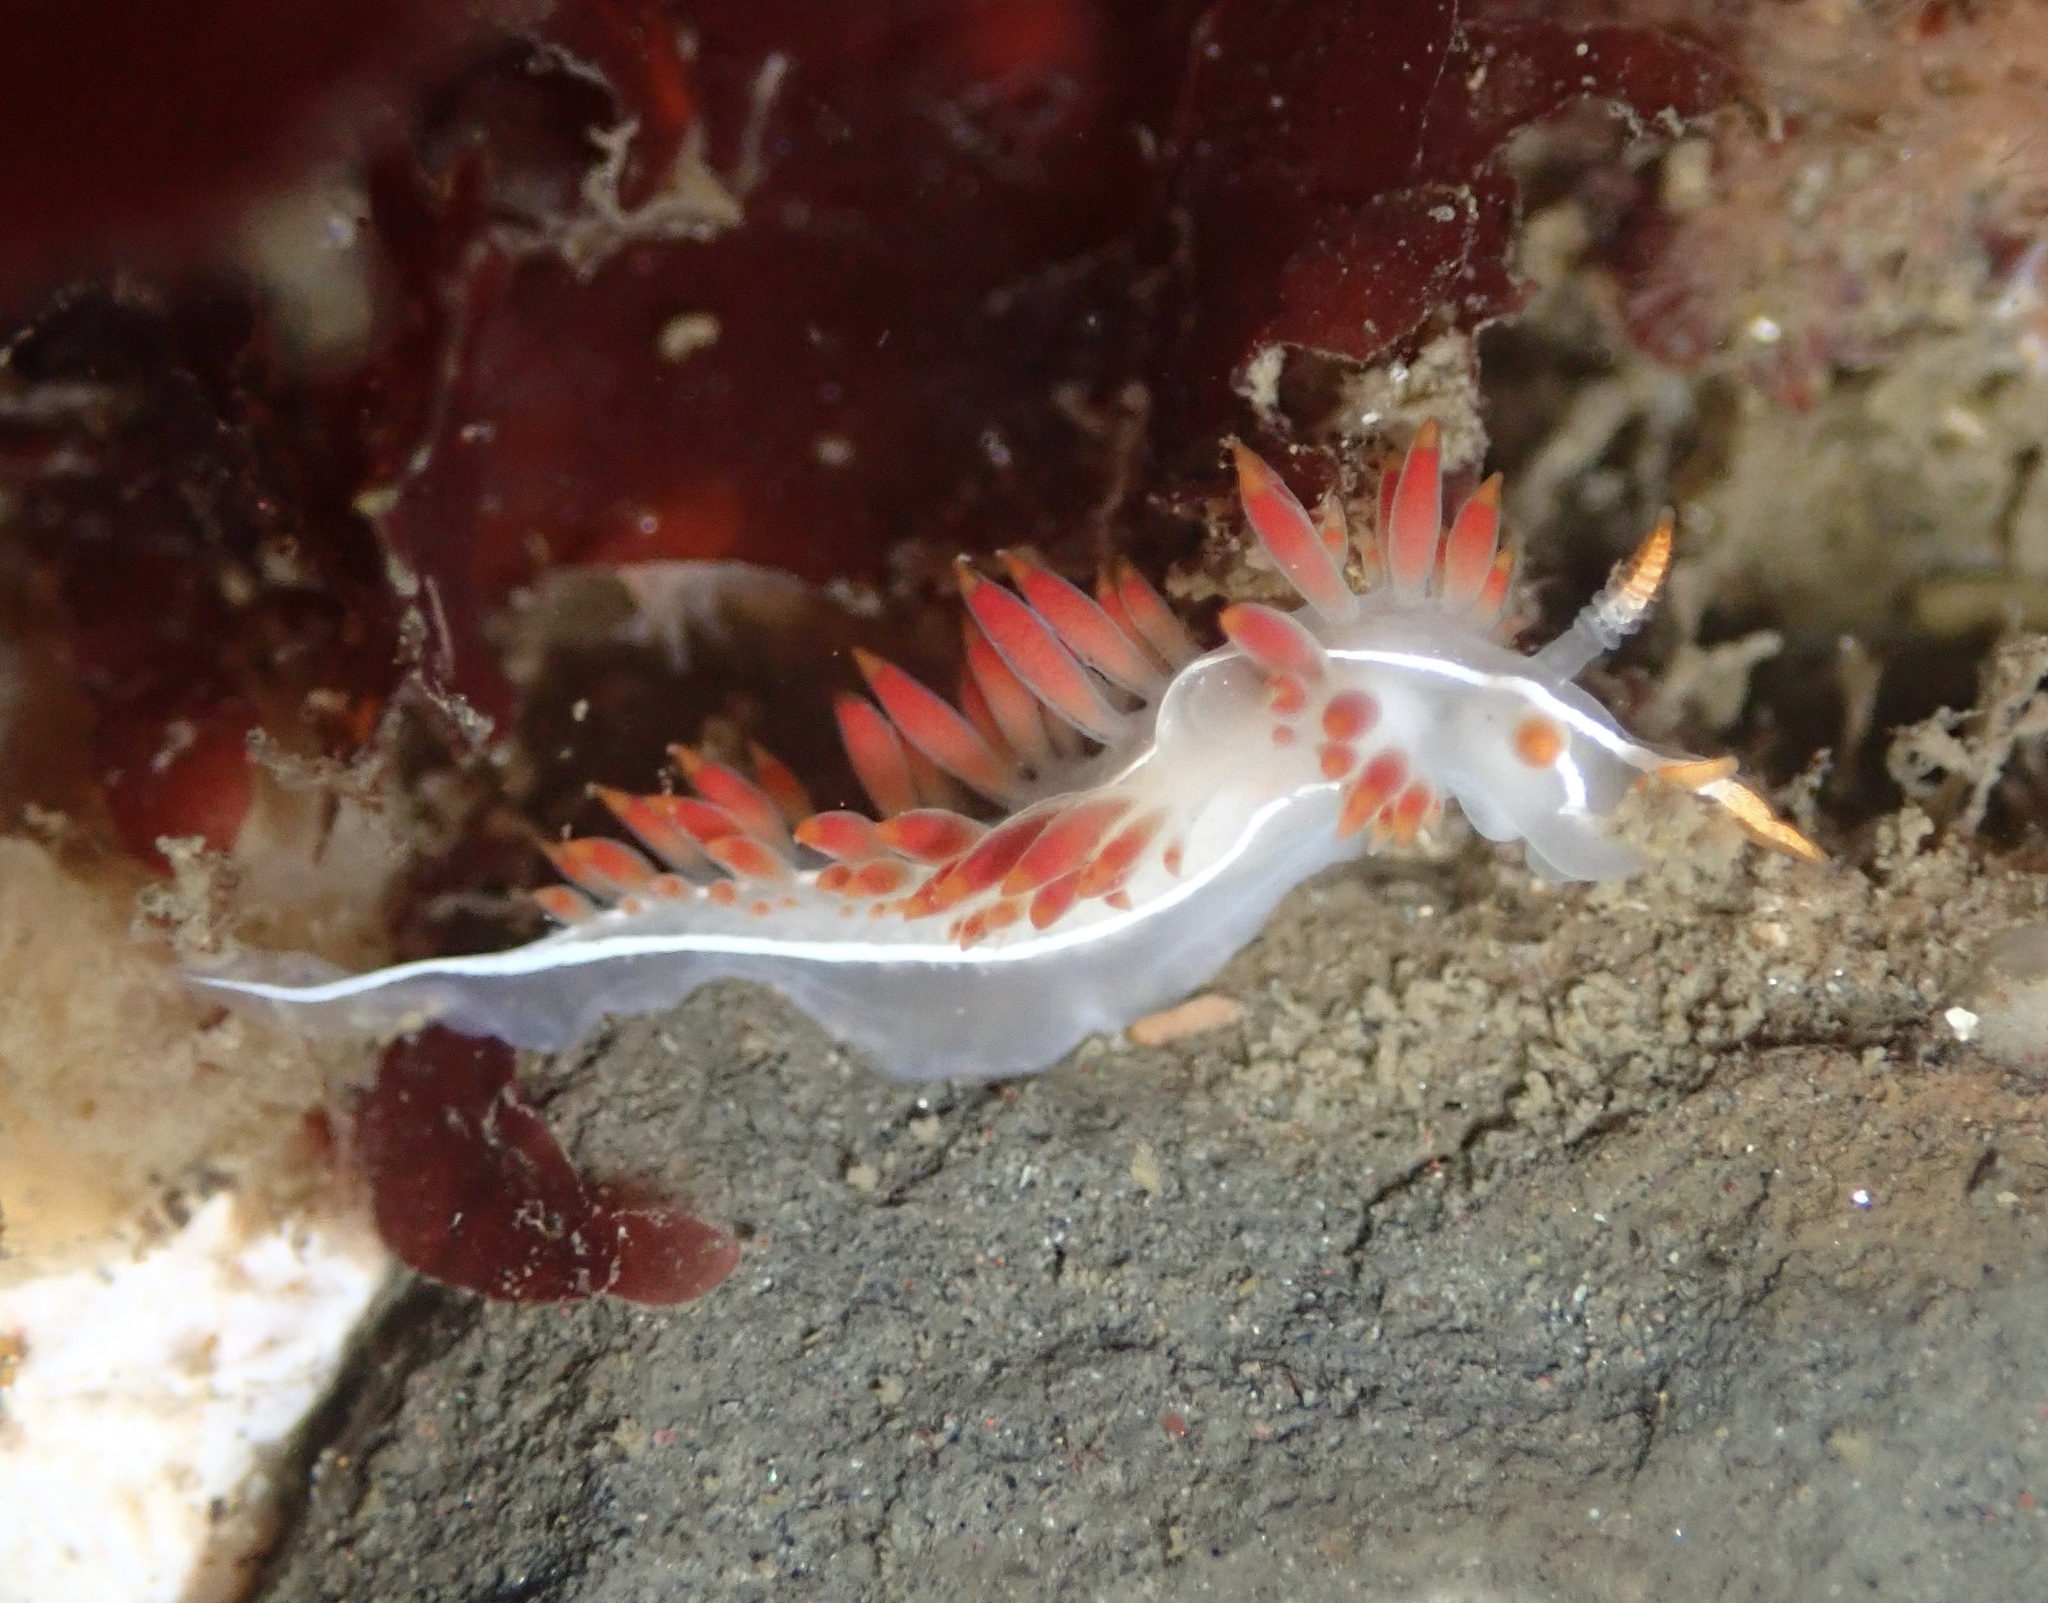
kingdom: Animalia
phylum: Mollusca
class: Gastropoda
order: Nudibranchia
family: Coryphellidae
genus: Coryphella
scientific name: Coryphella trilineata
